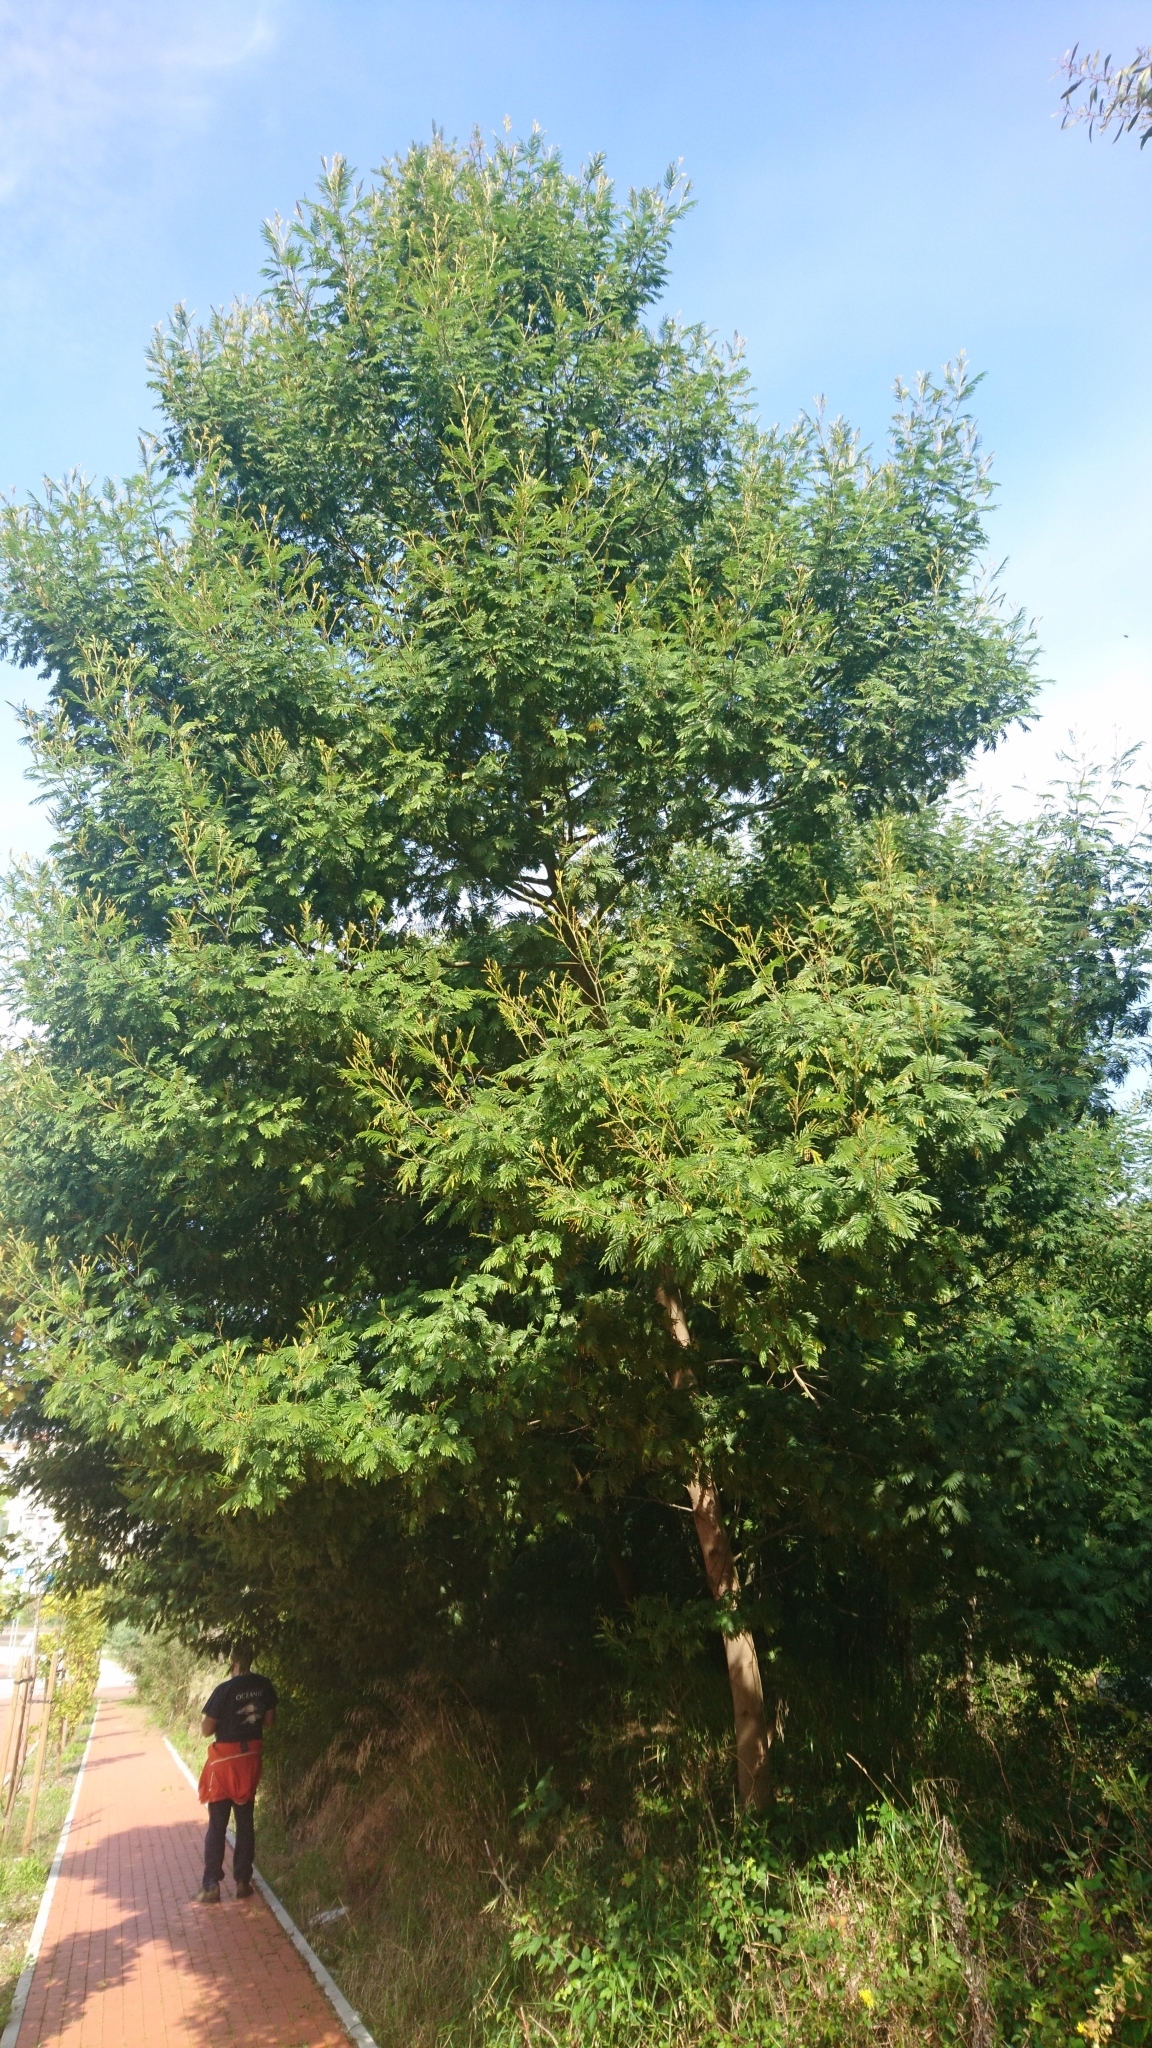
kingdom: Plantae
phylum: Tracheophyta
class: Magnoliopsida
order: Fabales
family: Fabaceae
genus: Acacia
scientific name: Acacia mearnsii
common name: Black wattle
